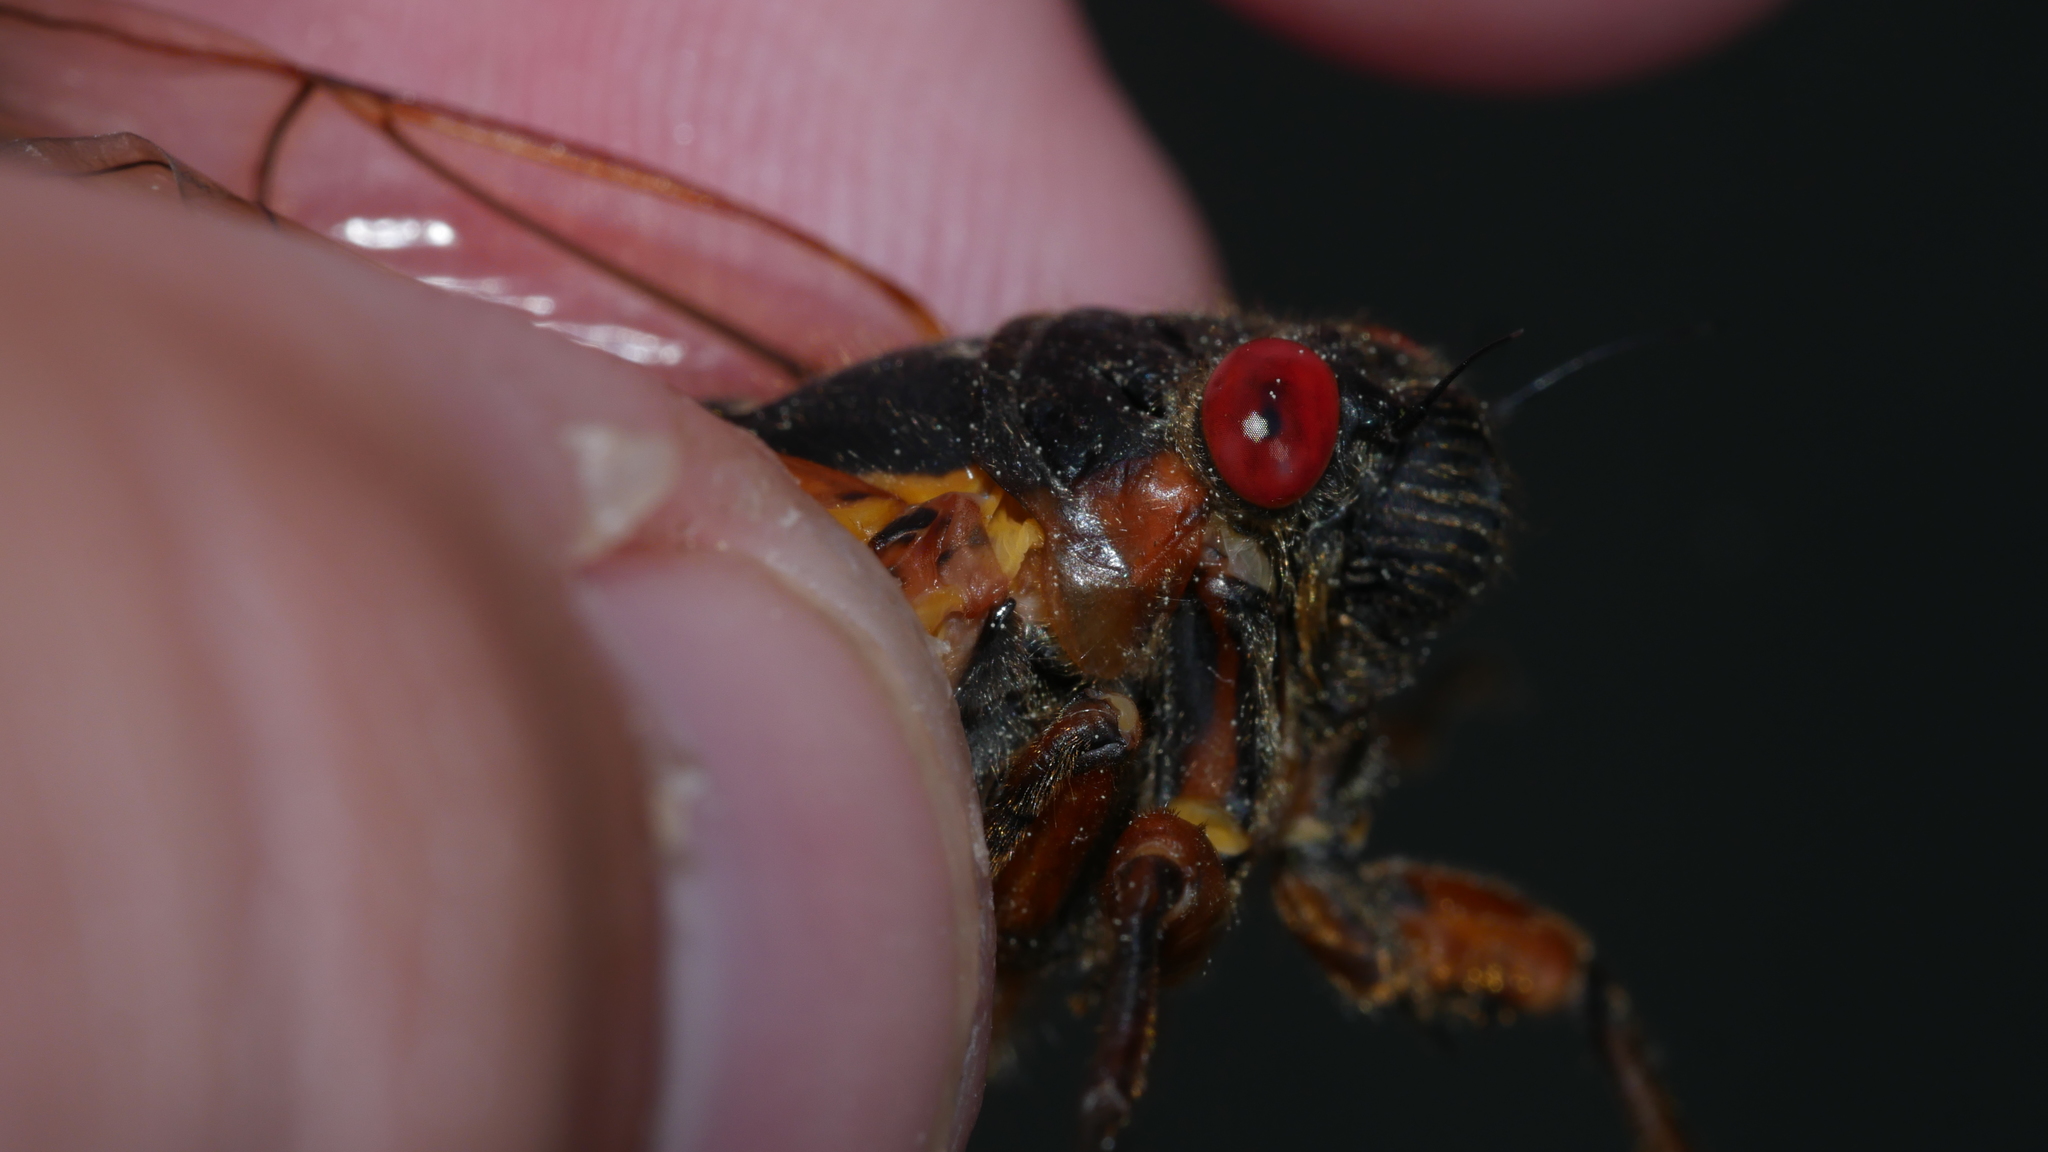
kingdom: Animalia
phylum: Arthropoda
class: Insecta
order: Hemiptera
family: Cicadidae
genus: Magicicada
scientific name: Magicicada septendecim
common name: Periodical cicada
